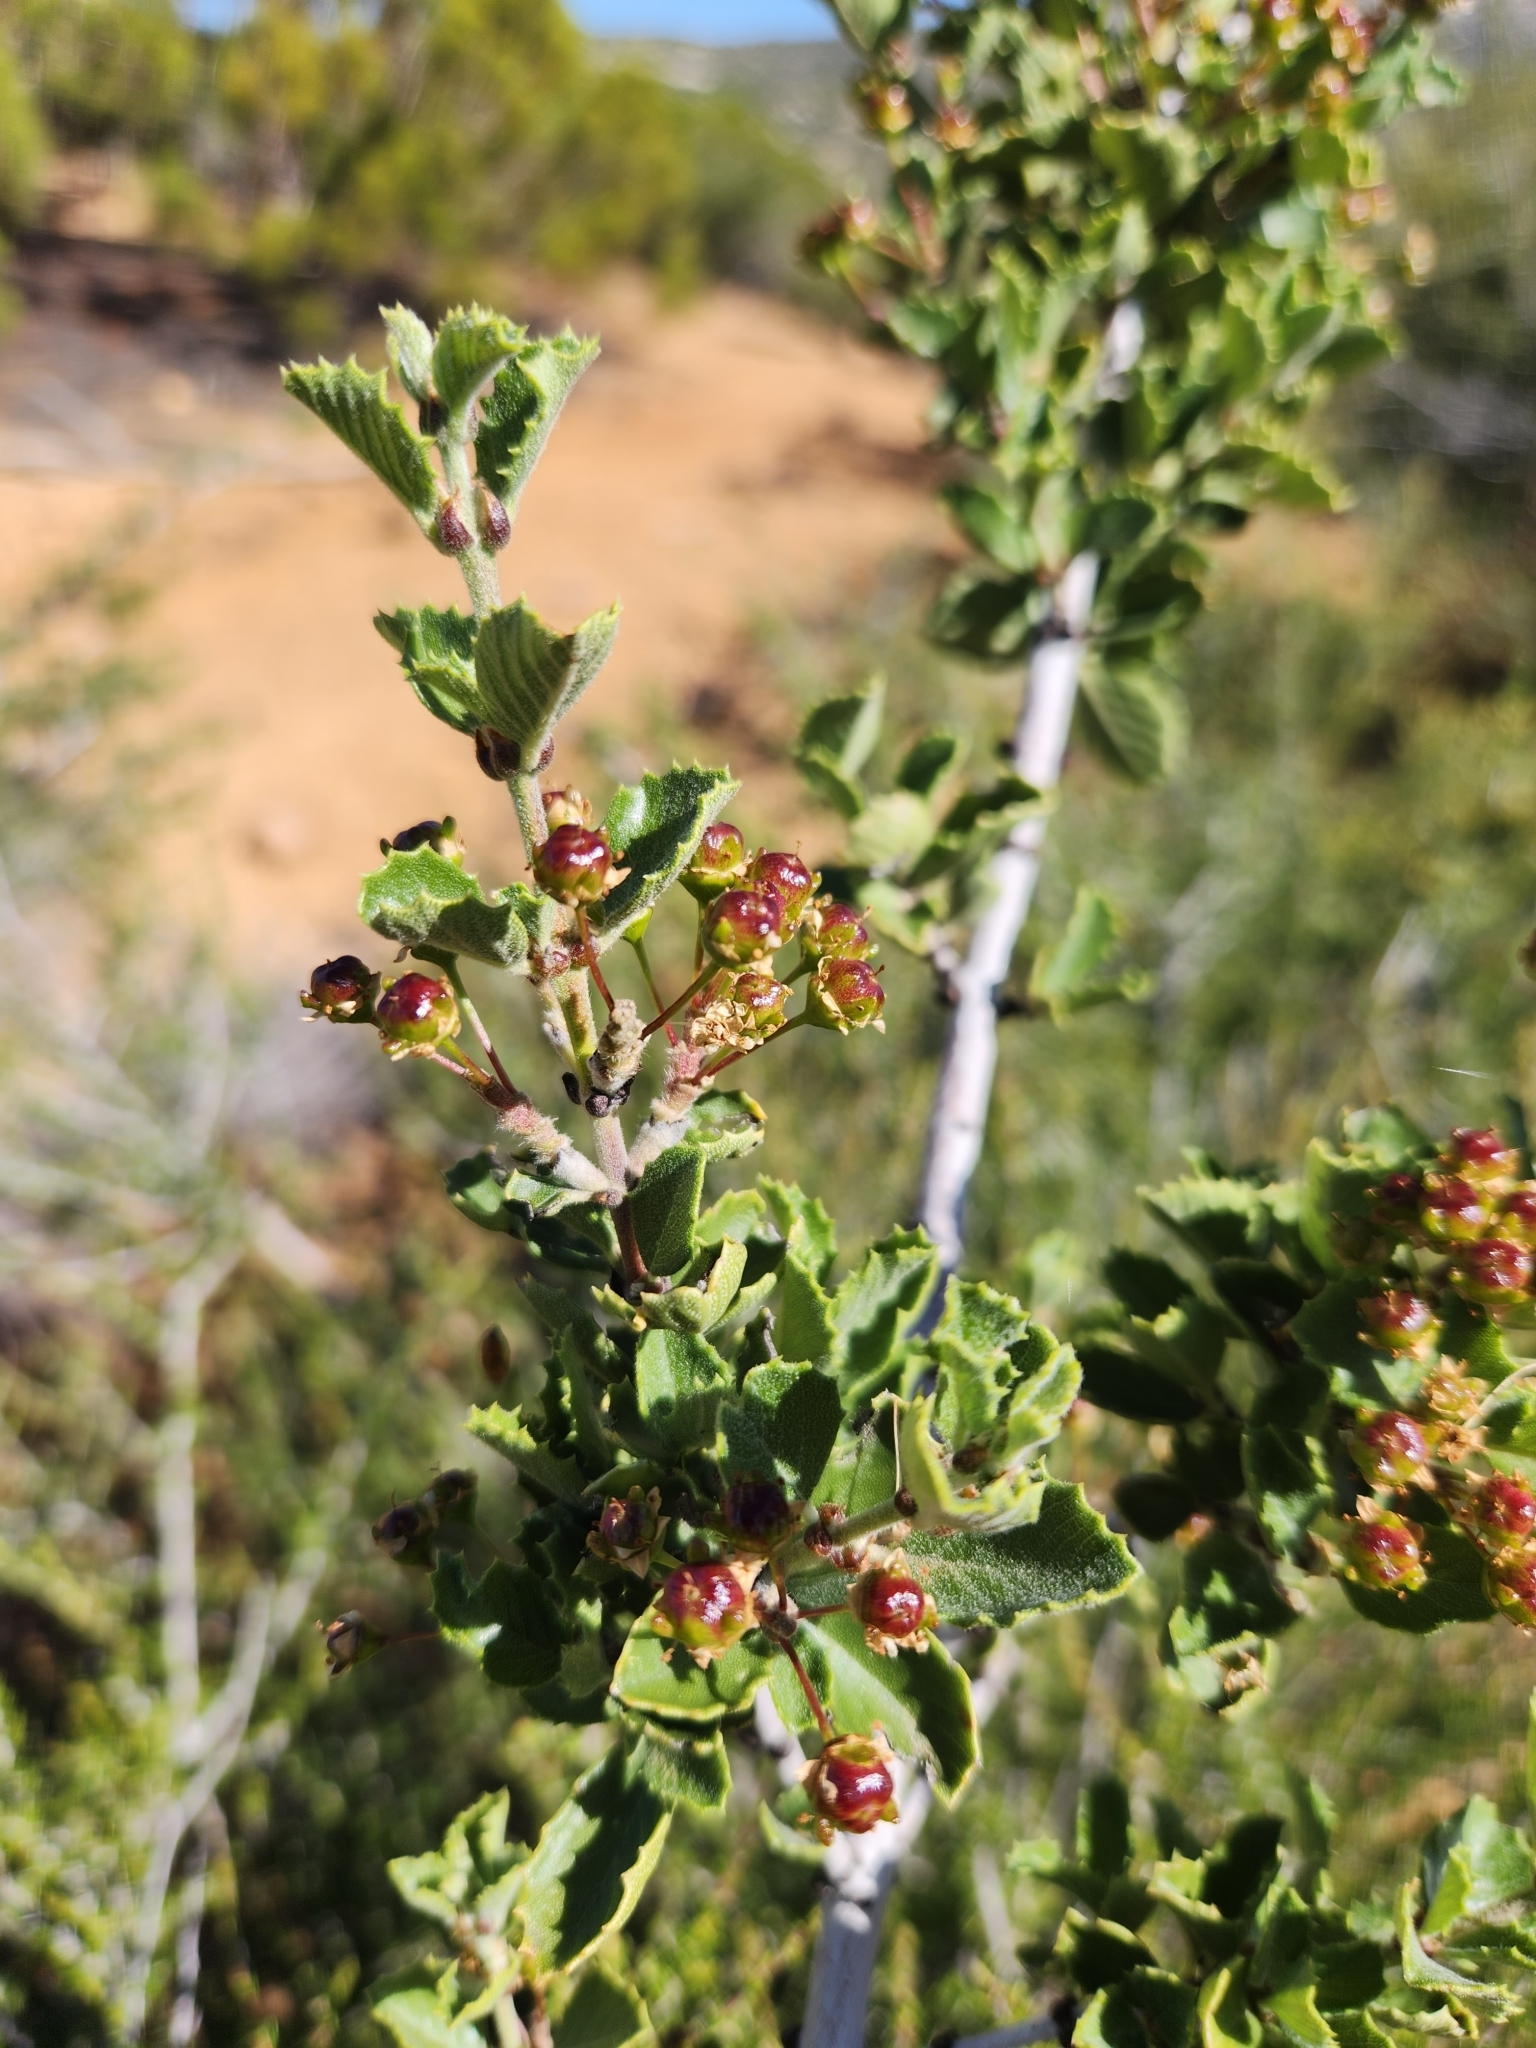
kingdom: Plantae
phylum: Tracheophyta
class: Magnoliopsida
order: Rosales
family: Rhamnaceae
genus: Ceanothus
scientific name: Ceanothus perplexans
